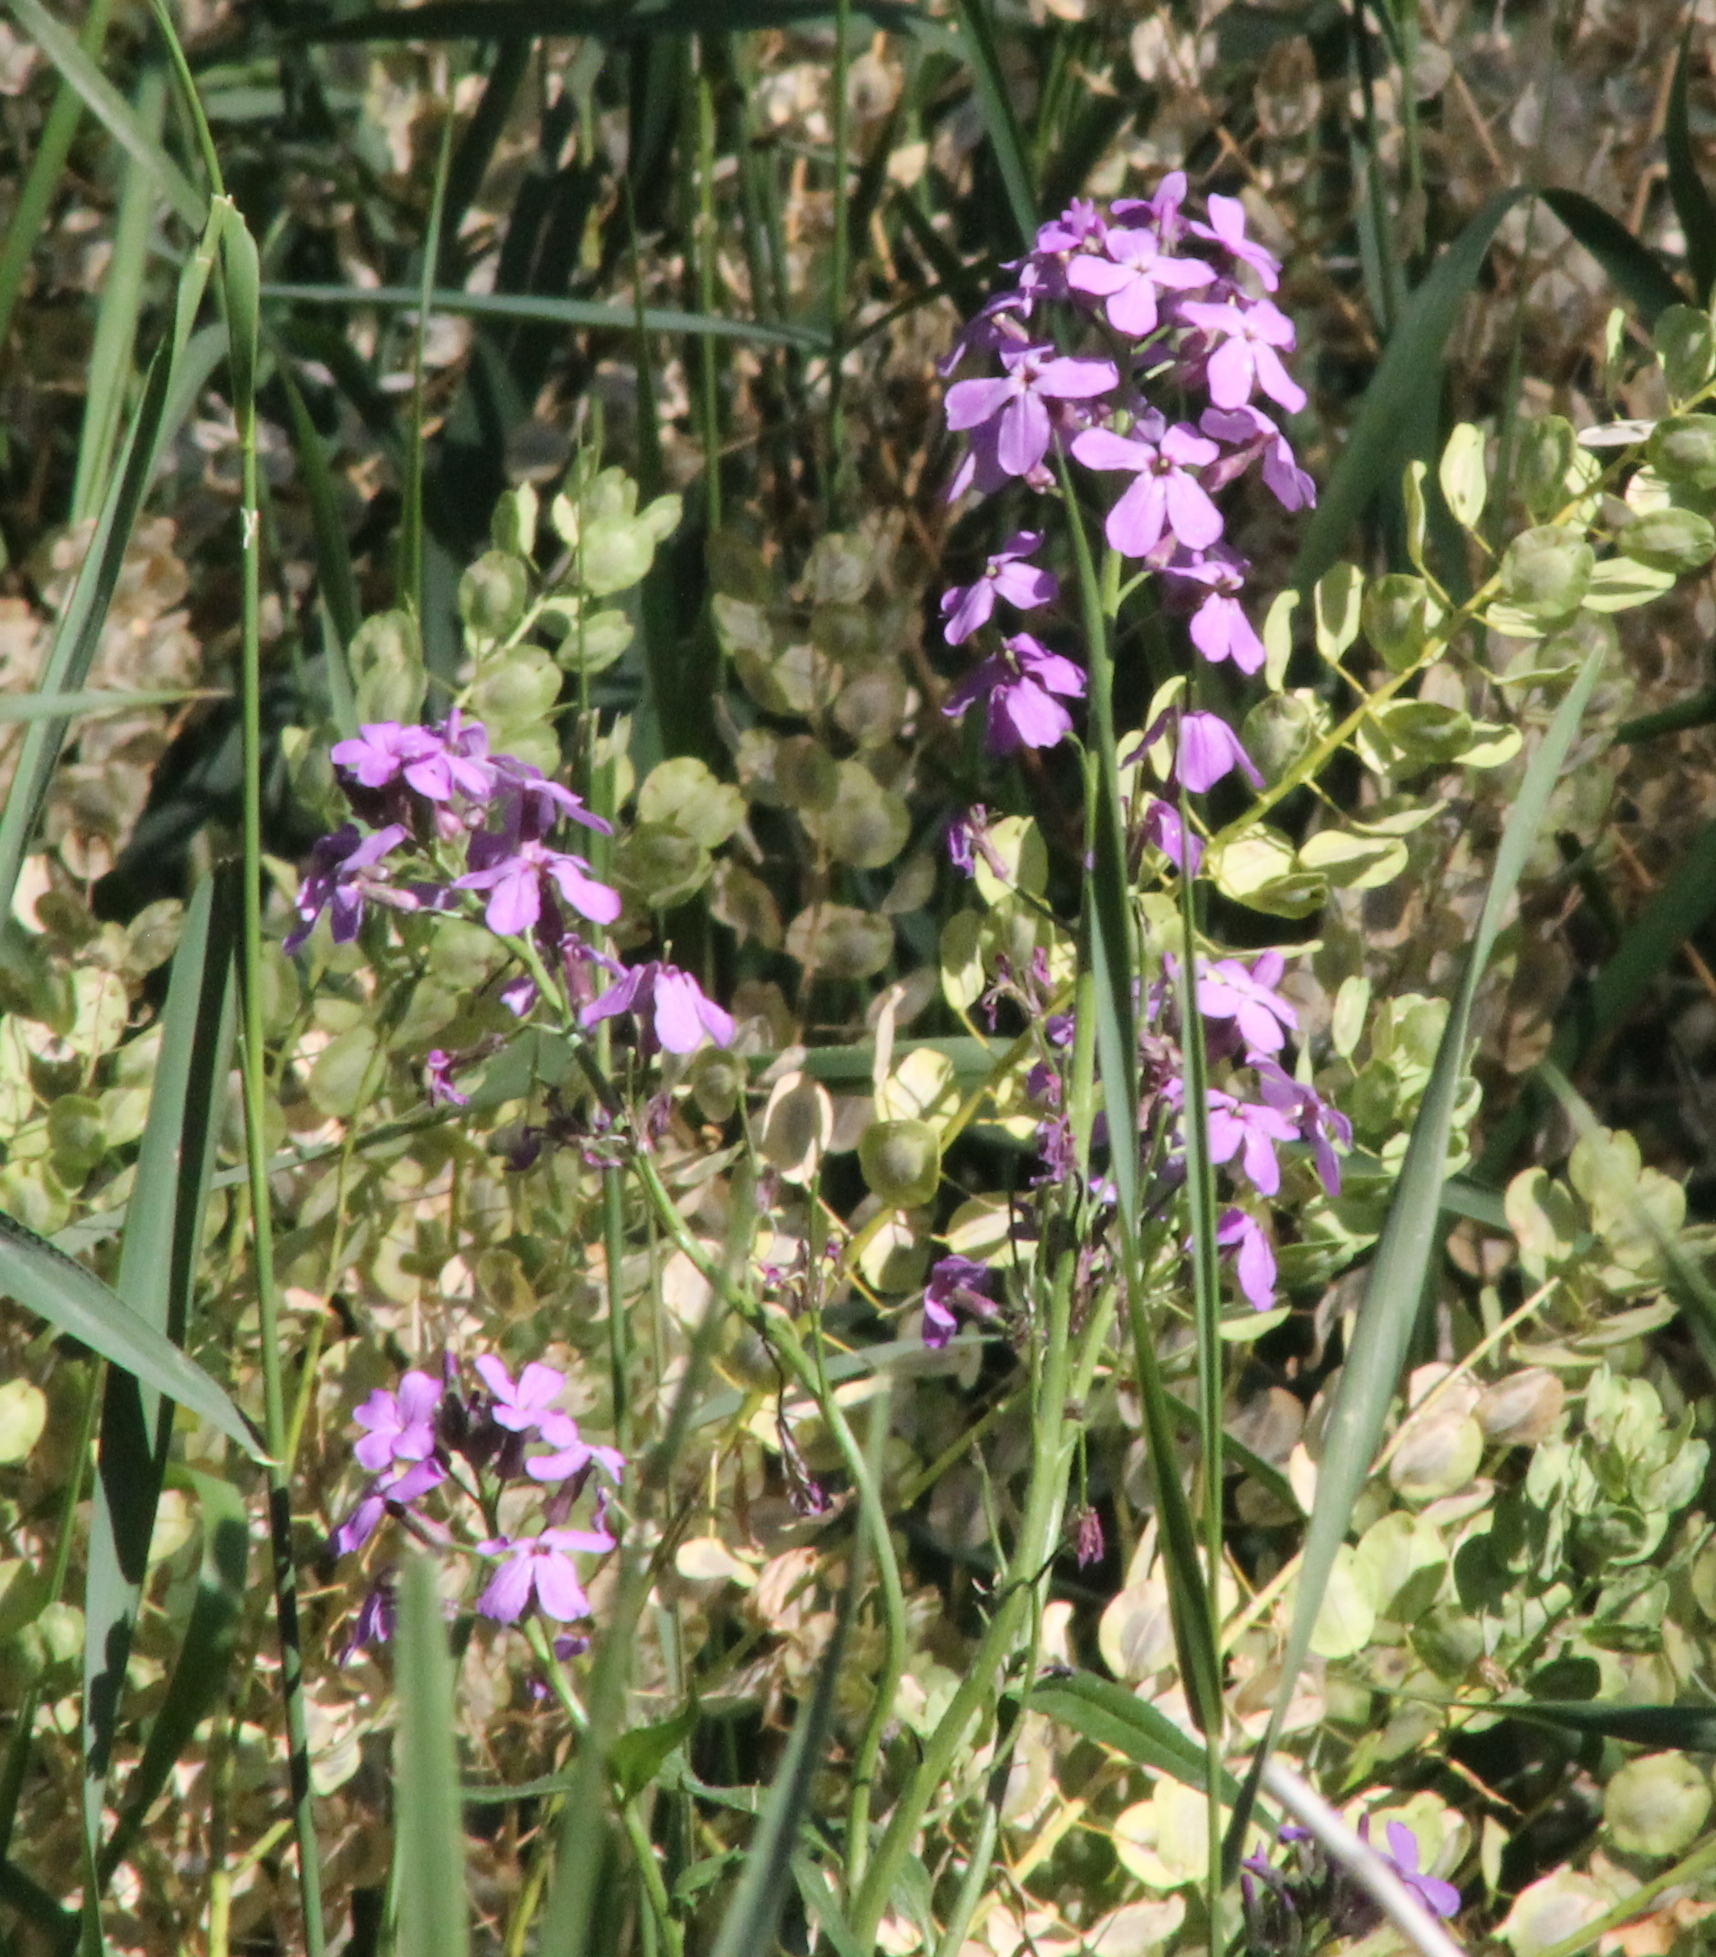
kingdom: Plantae
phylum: Tracheophyta
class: Magnoliopsida
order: Brassicales
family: Brassicaceae
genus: Hesperis
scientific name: Hesperis matronalis
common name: Dame's-violet
